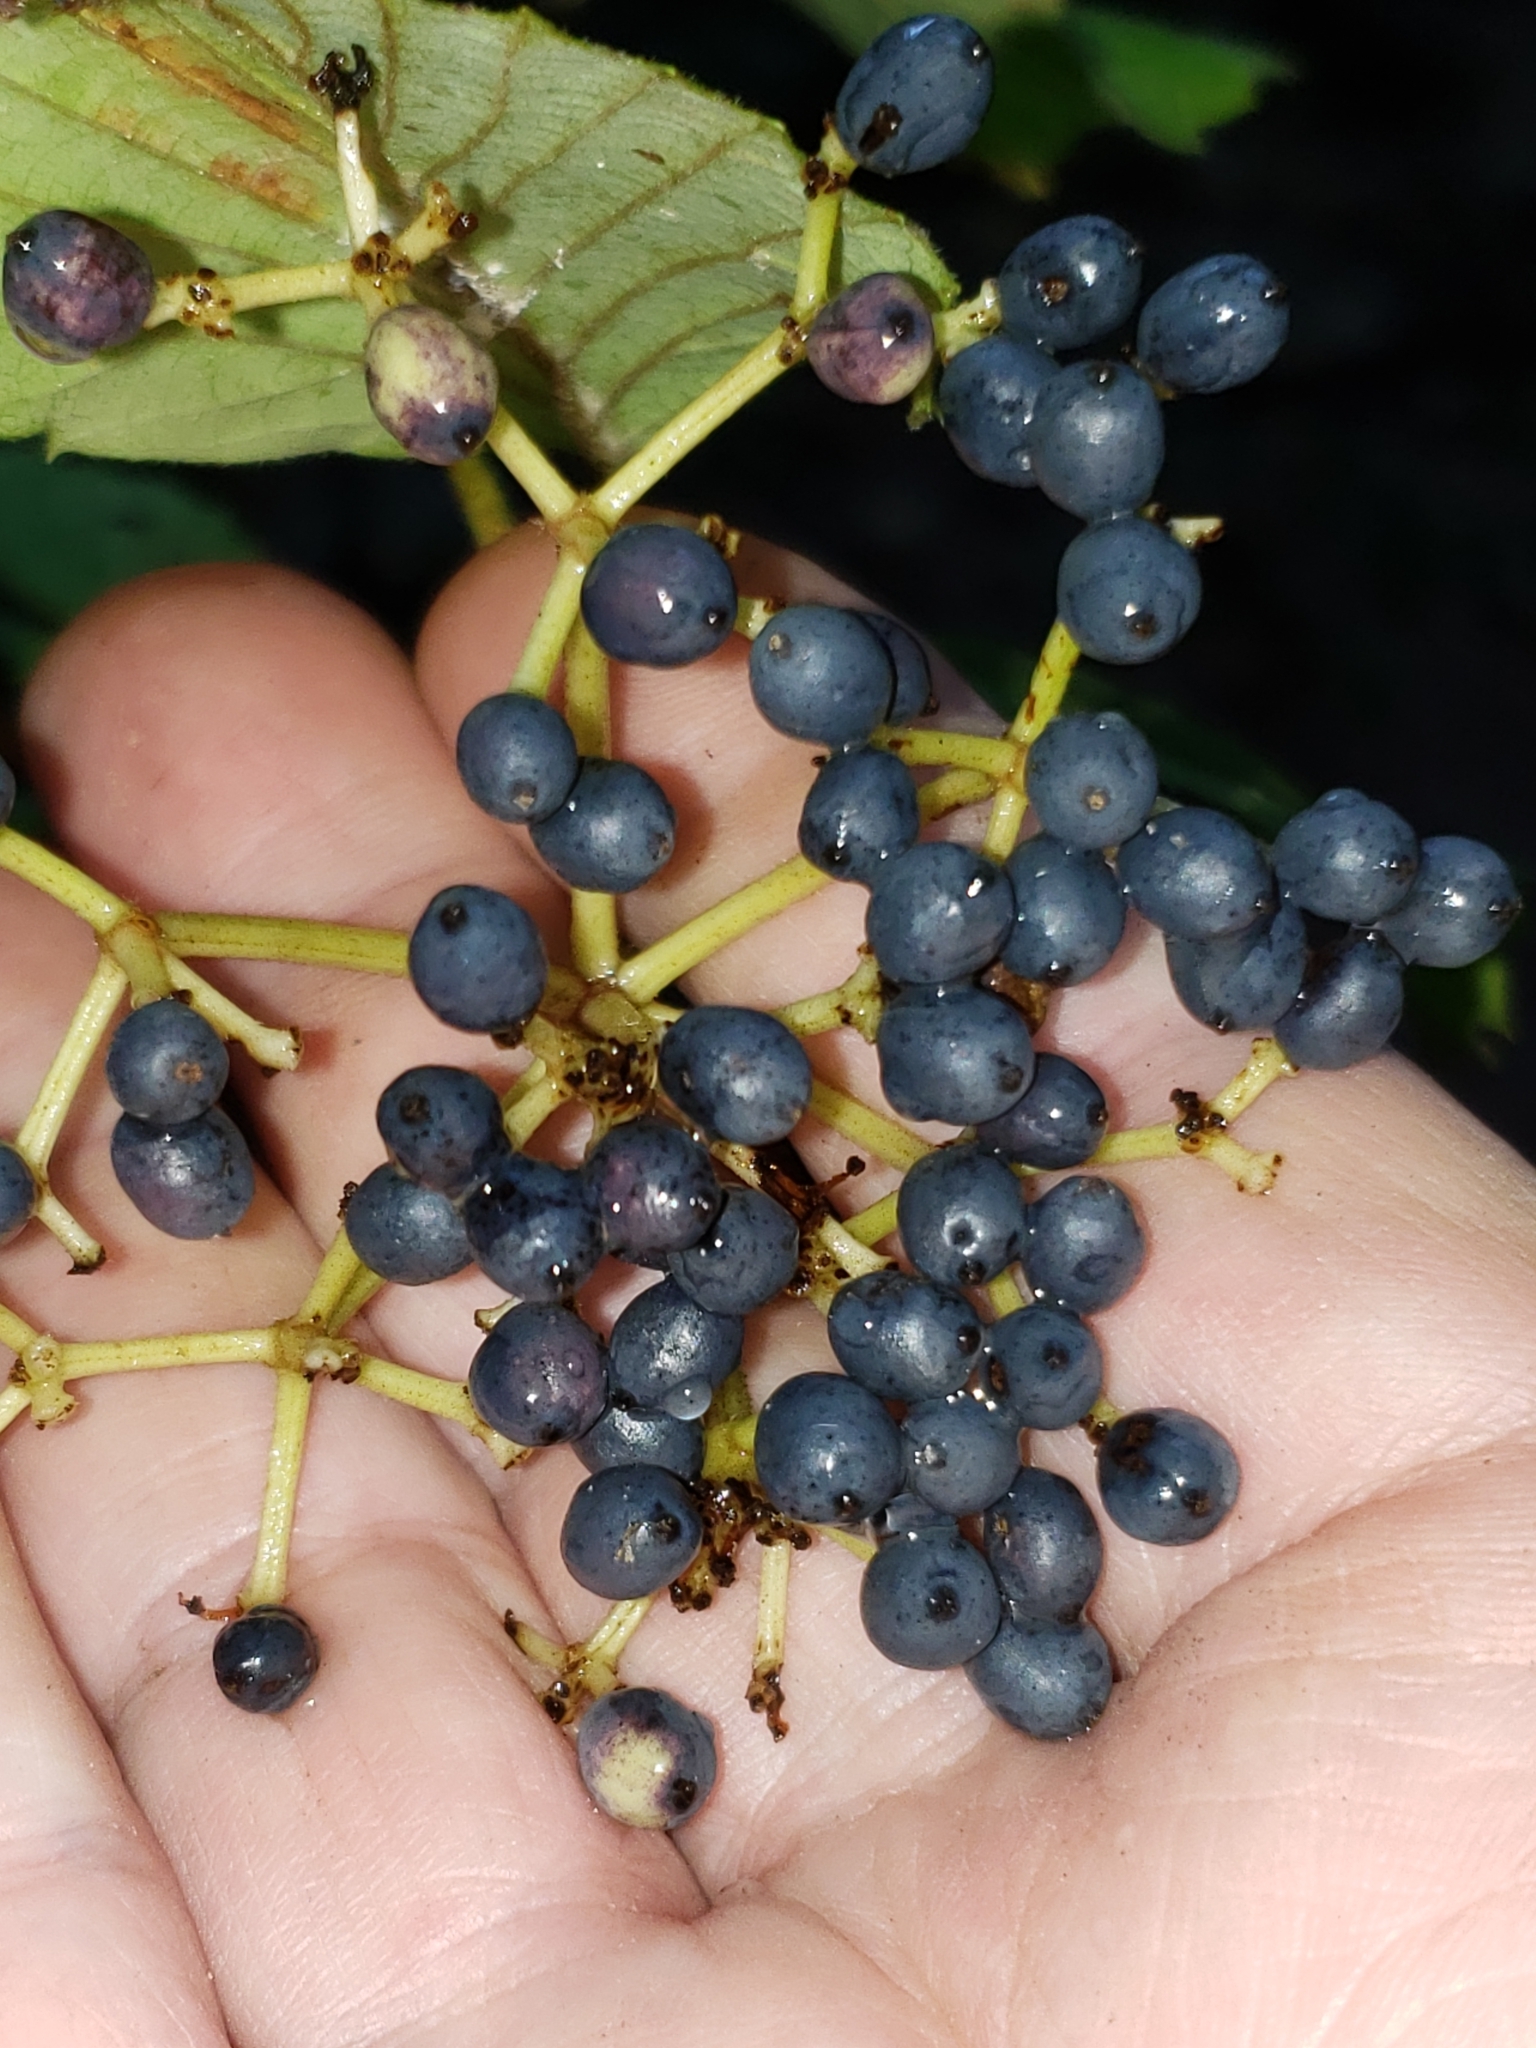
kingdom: Plantae
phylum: Tracheophyta
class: Magnoliopsida
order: Dipsacales
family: Viburnaceae
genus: Viburnum
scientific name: Viburnum dentatum
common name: Arrow-wood
